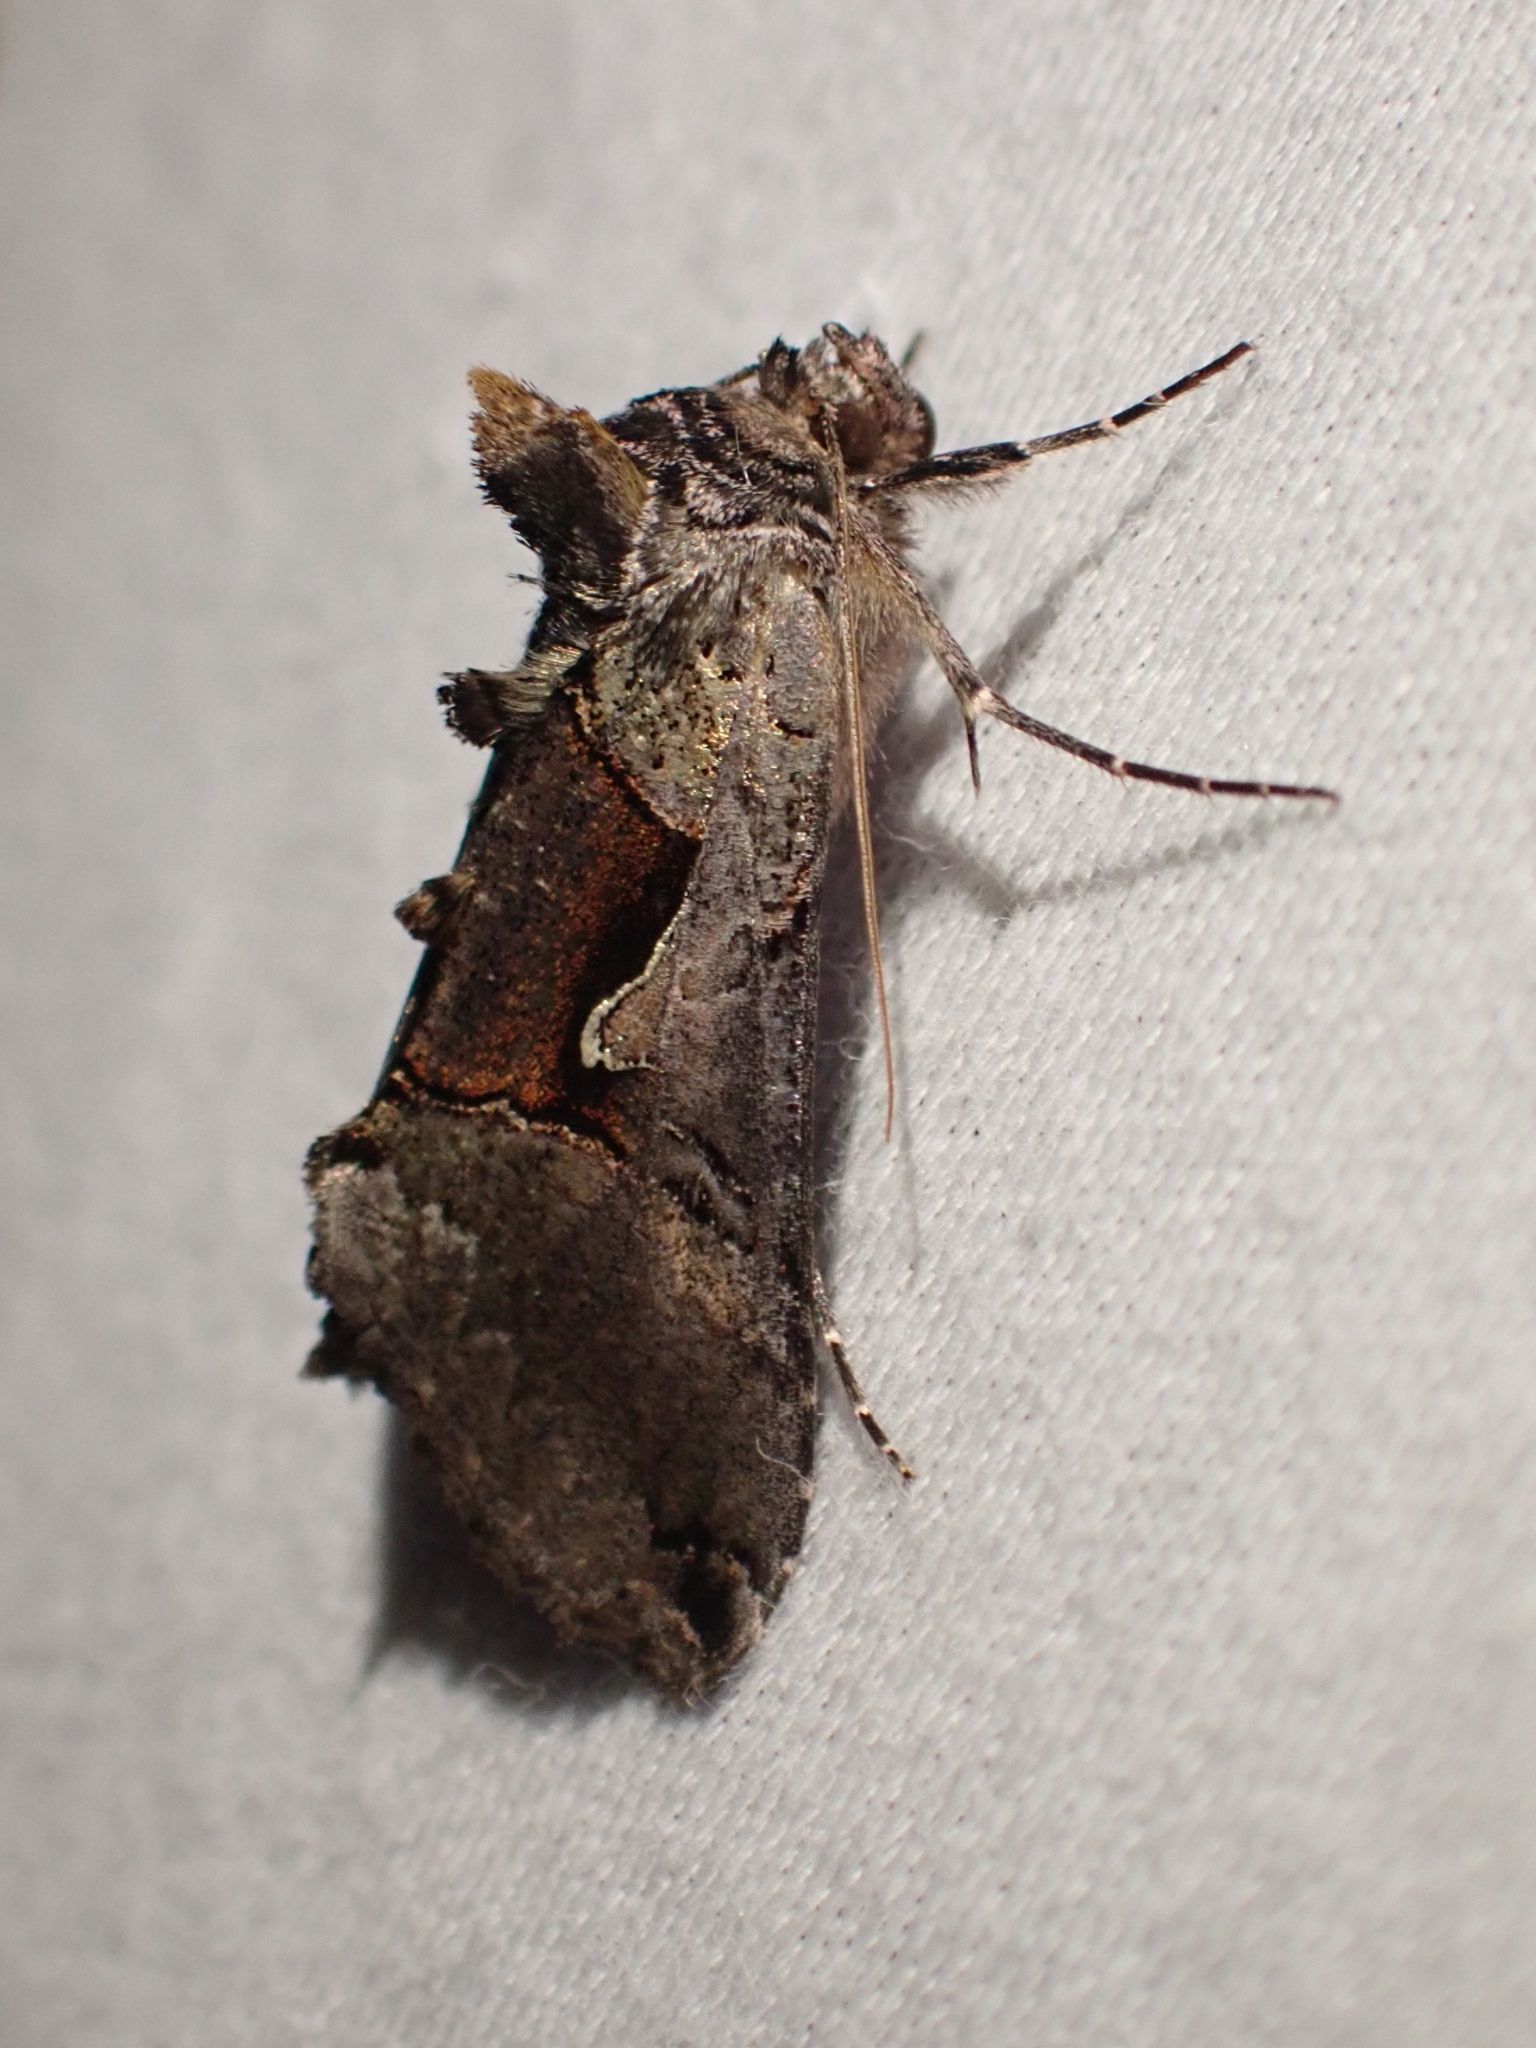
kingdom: Animalia
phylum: Arthropoda
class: Insecta
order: Lepidoptera
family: Noctuidae
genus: Autographa
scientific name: Autographa ampla
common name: Large looper moth
